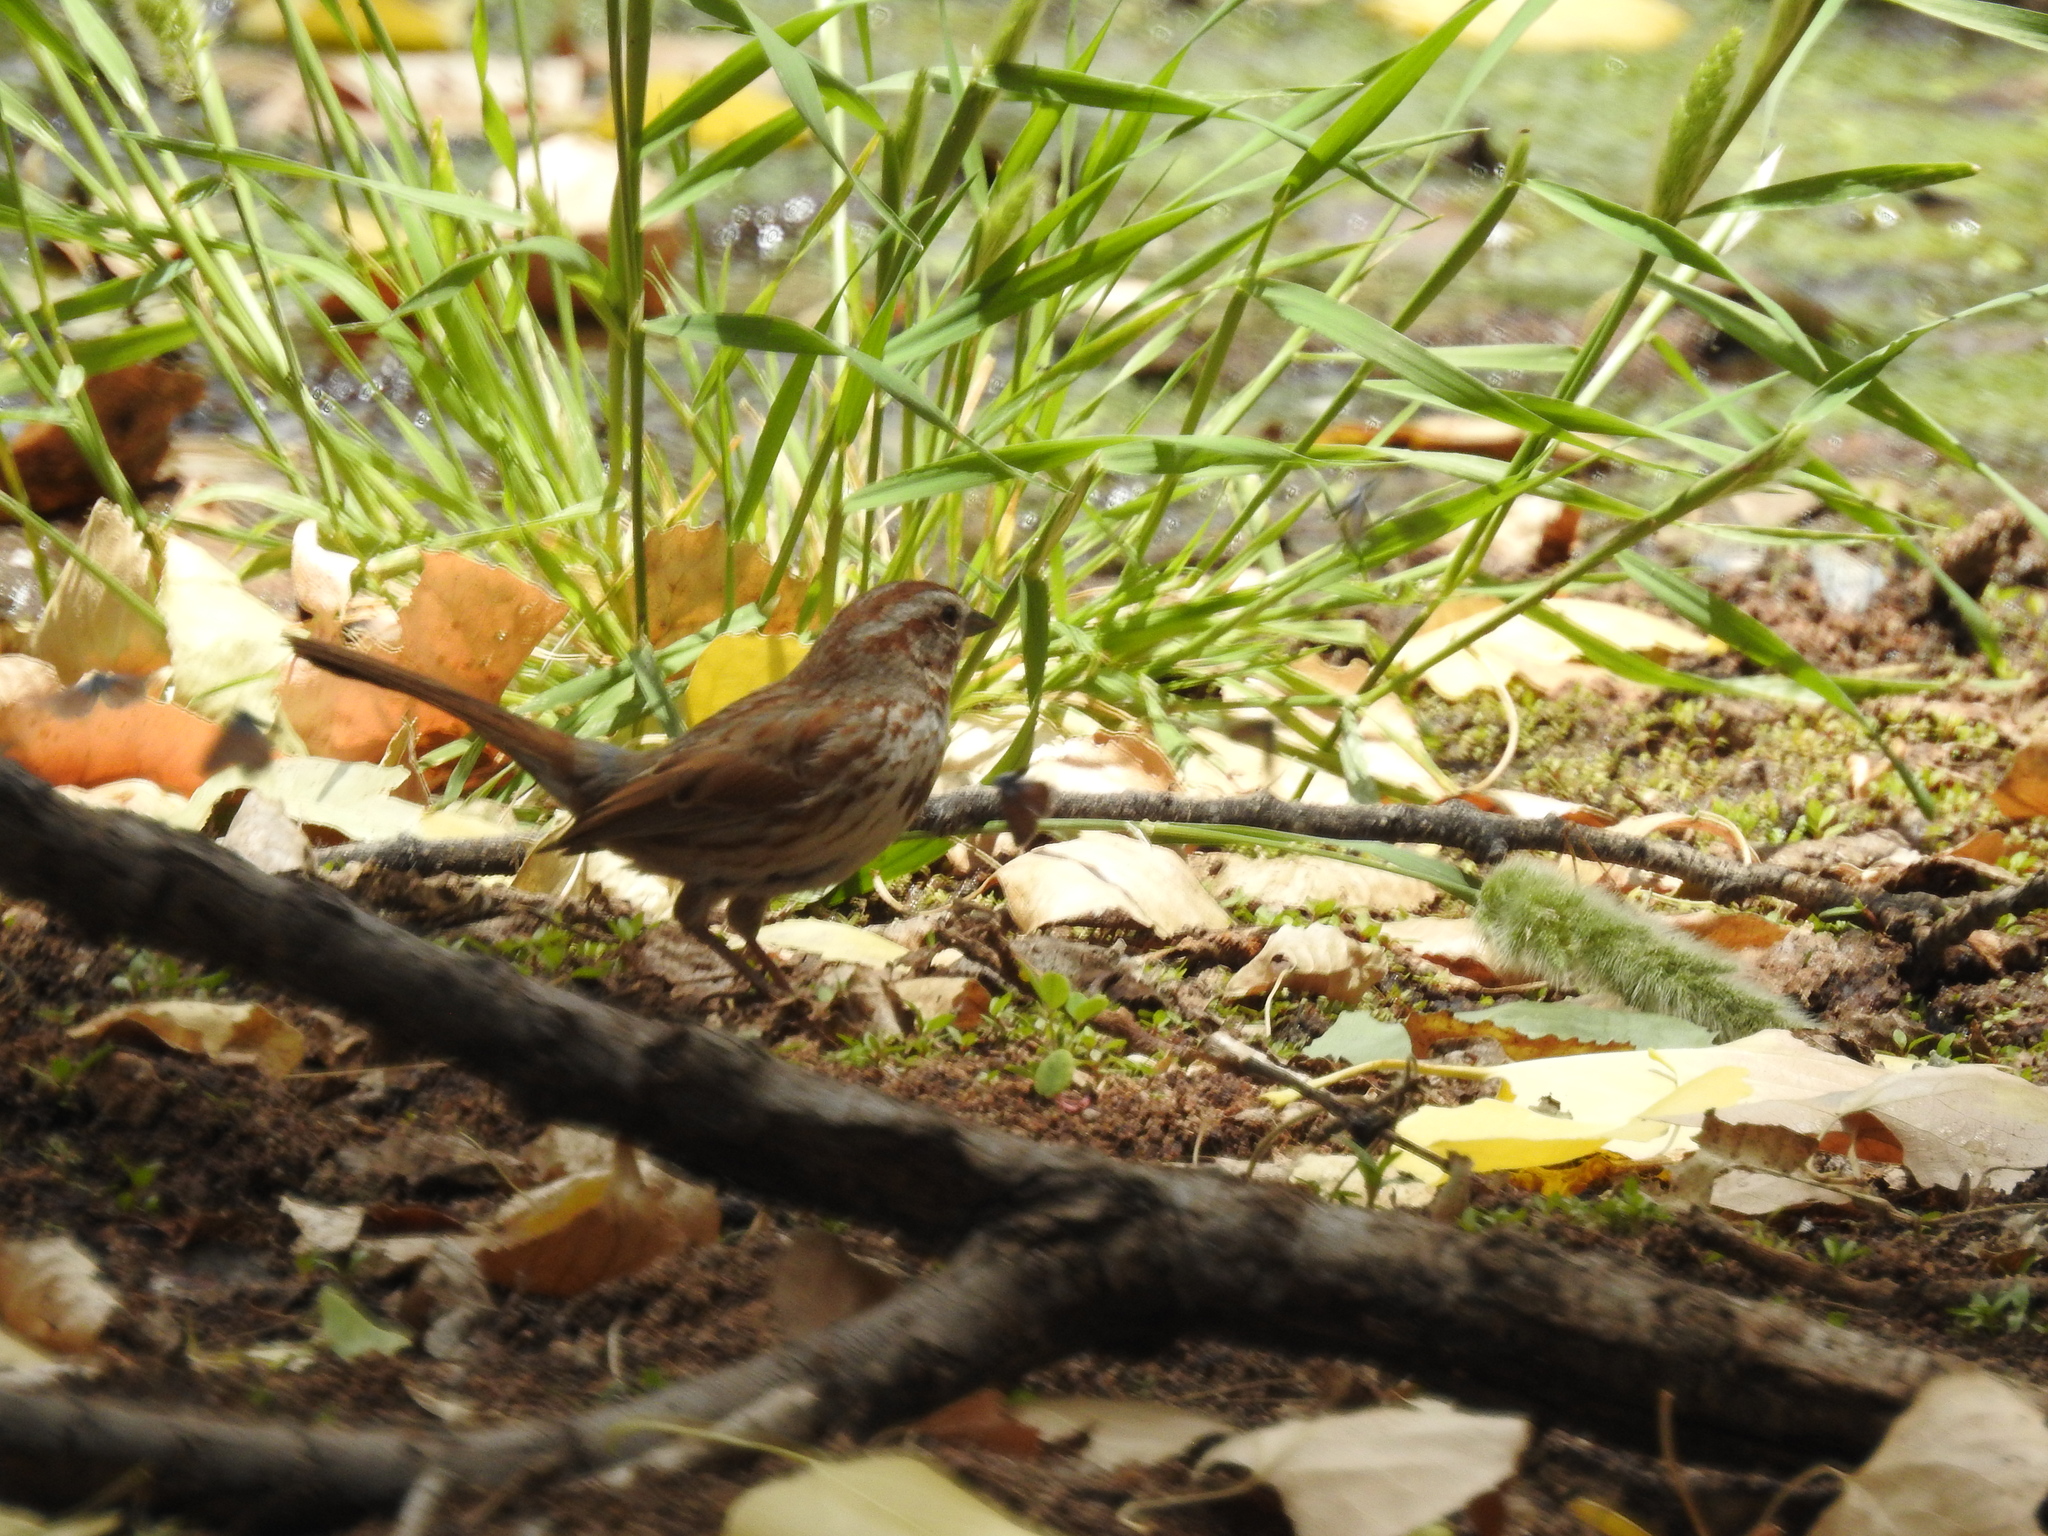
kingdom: Animalia
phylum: Chordata
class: Aves
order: Passeriformes
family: Passerellidae
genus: Melospiza
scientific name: Melospiza melodia
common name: Song sparrow
